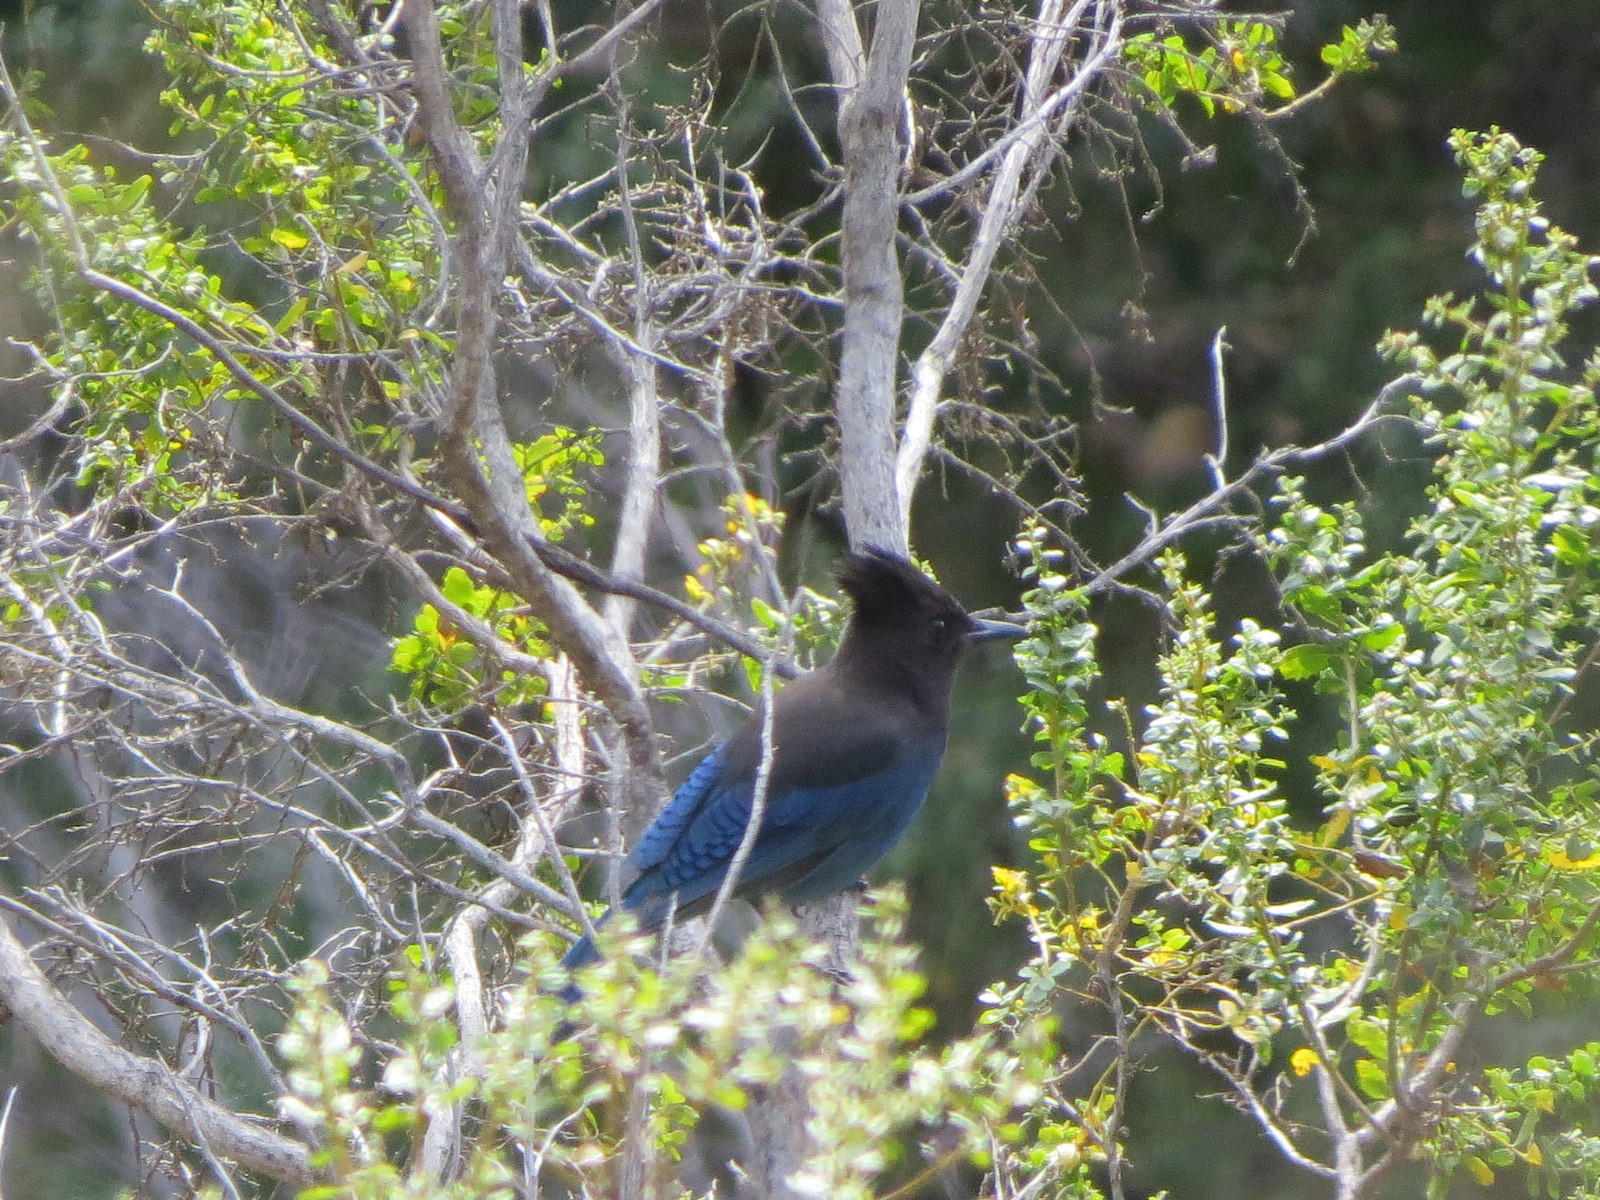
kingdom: Animalia
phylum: Chordata
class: Aves
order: Passeriformes
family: Corvidae
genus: Cyanocitta
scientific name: Cyanocitta stelleri
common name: Steller's jay
